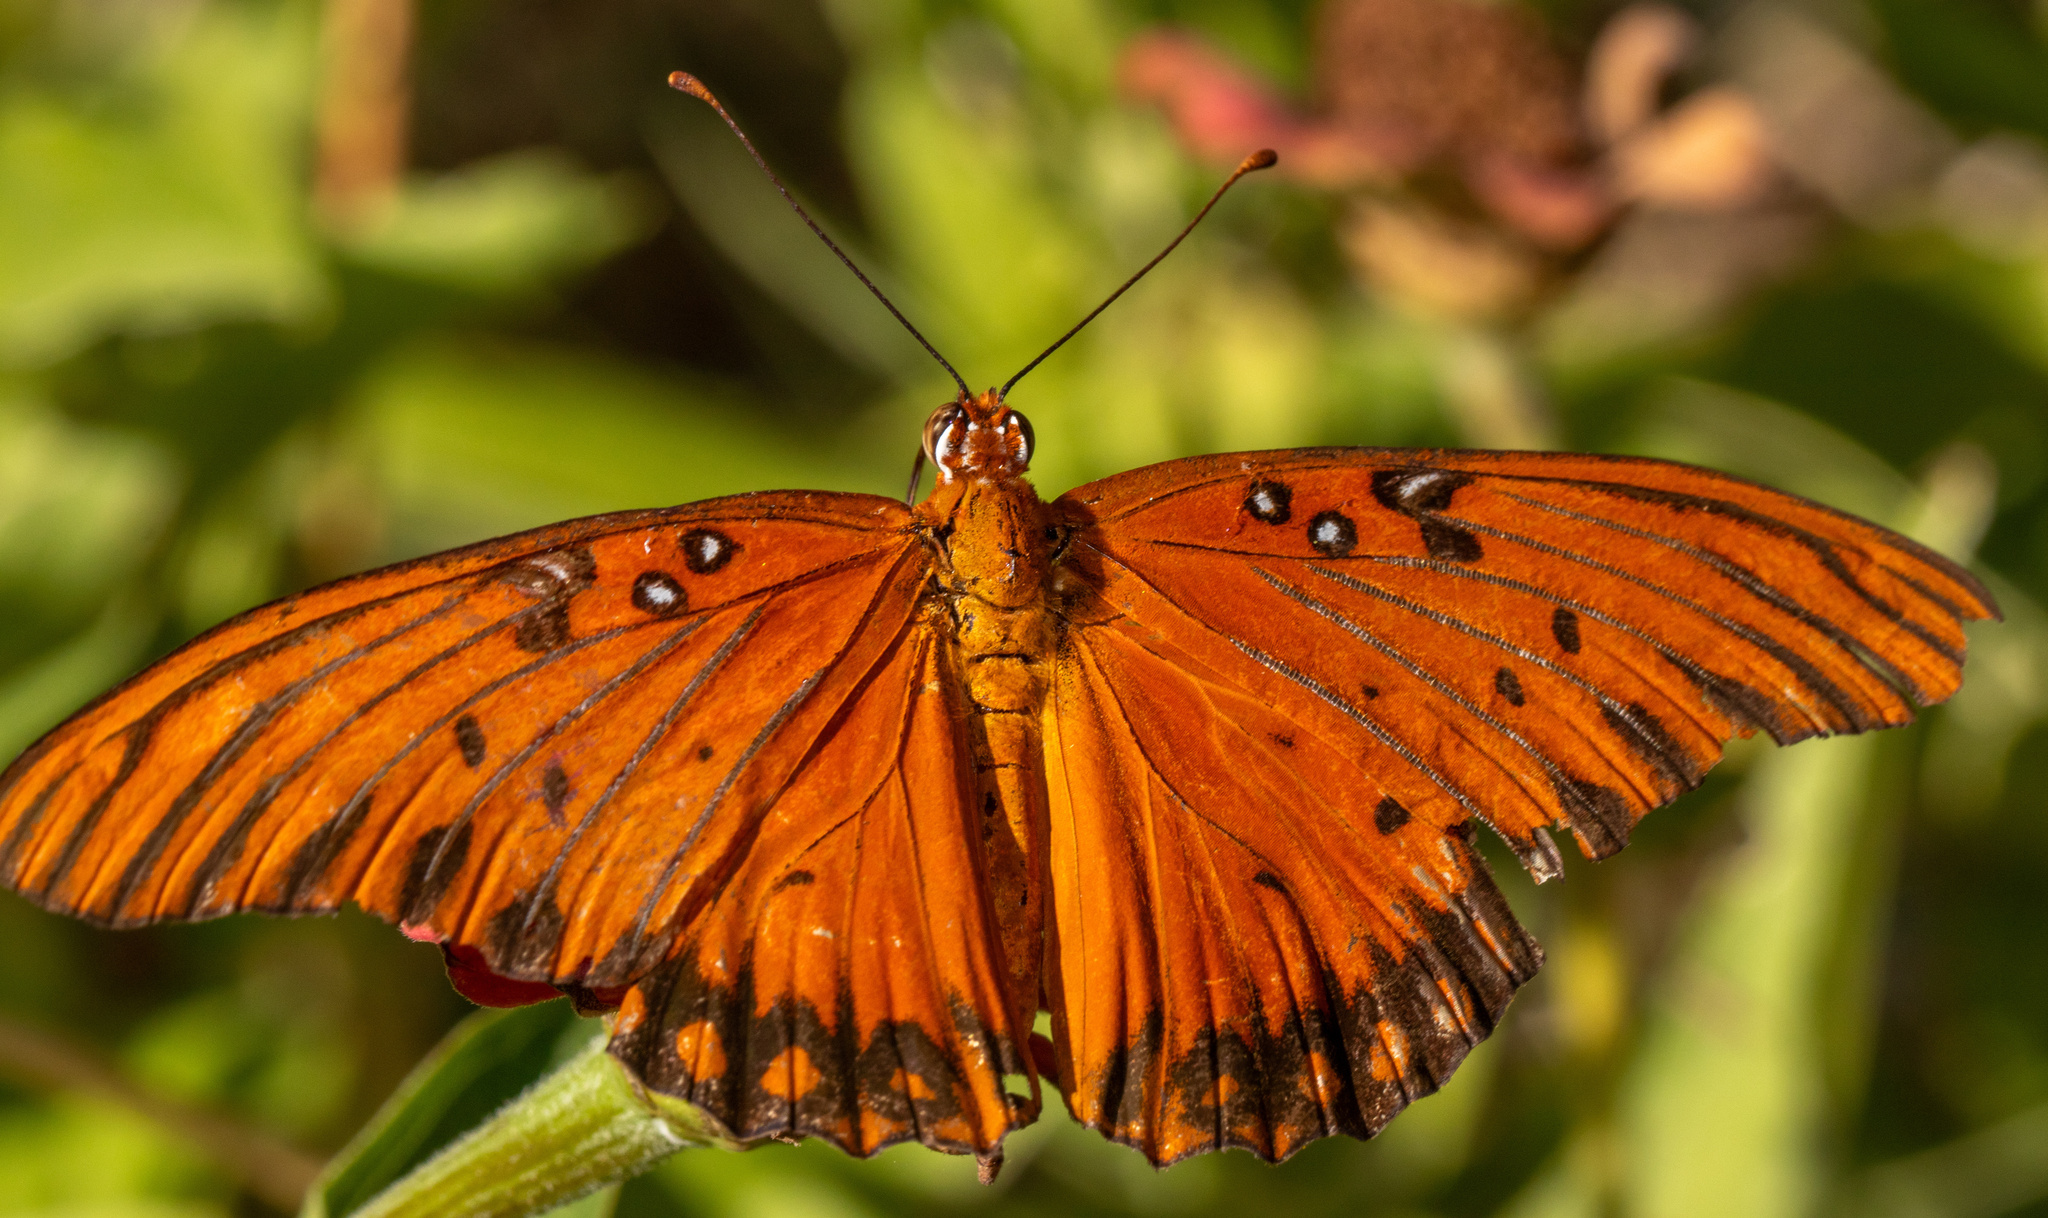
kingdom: Animalia
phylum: Arthropoda
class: Insecta
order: Lepidoptera
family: Nymphalidae
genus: Dione
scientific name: Dione vanillae
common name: Gulf fritillary
